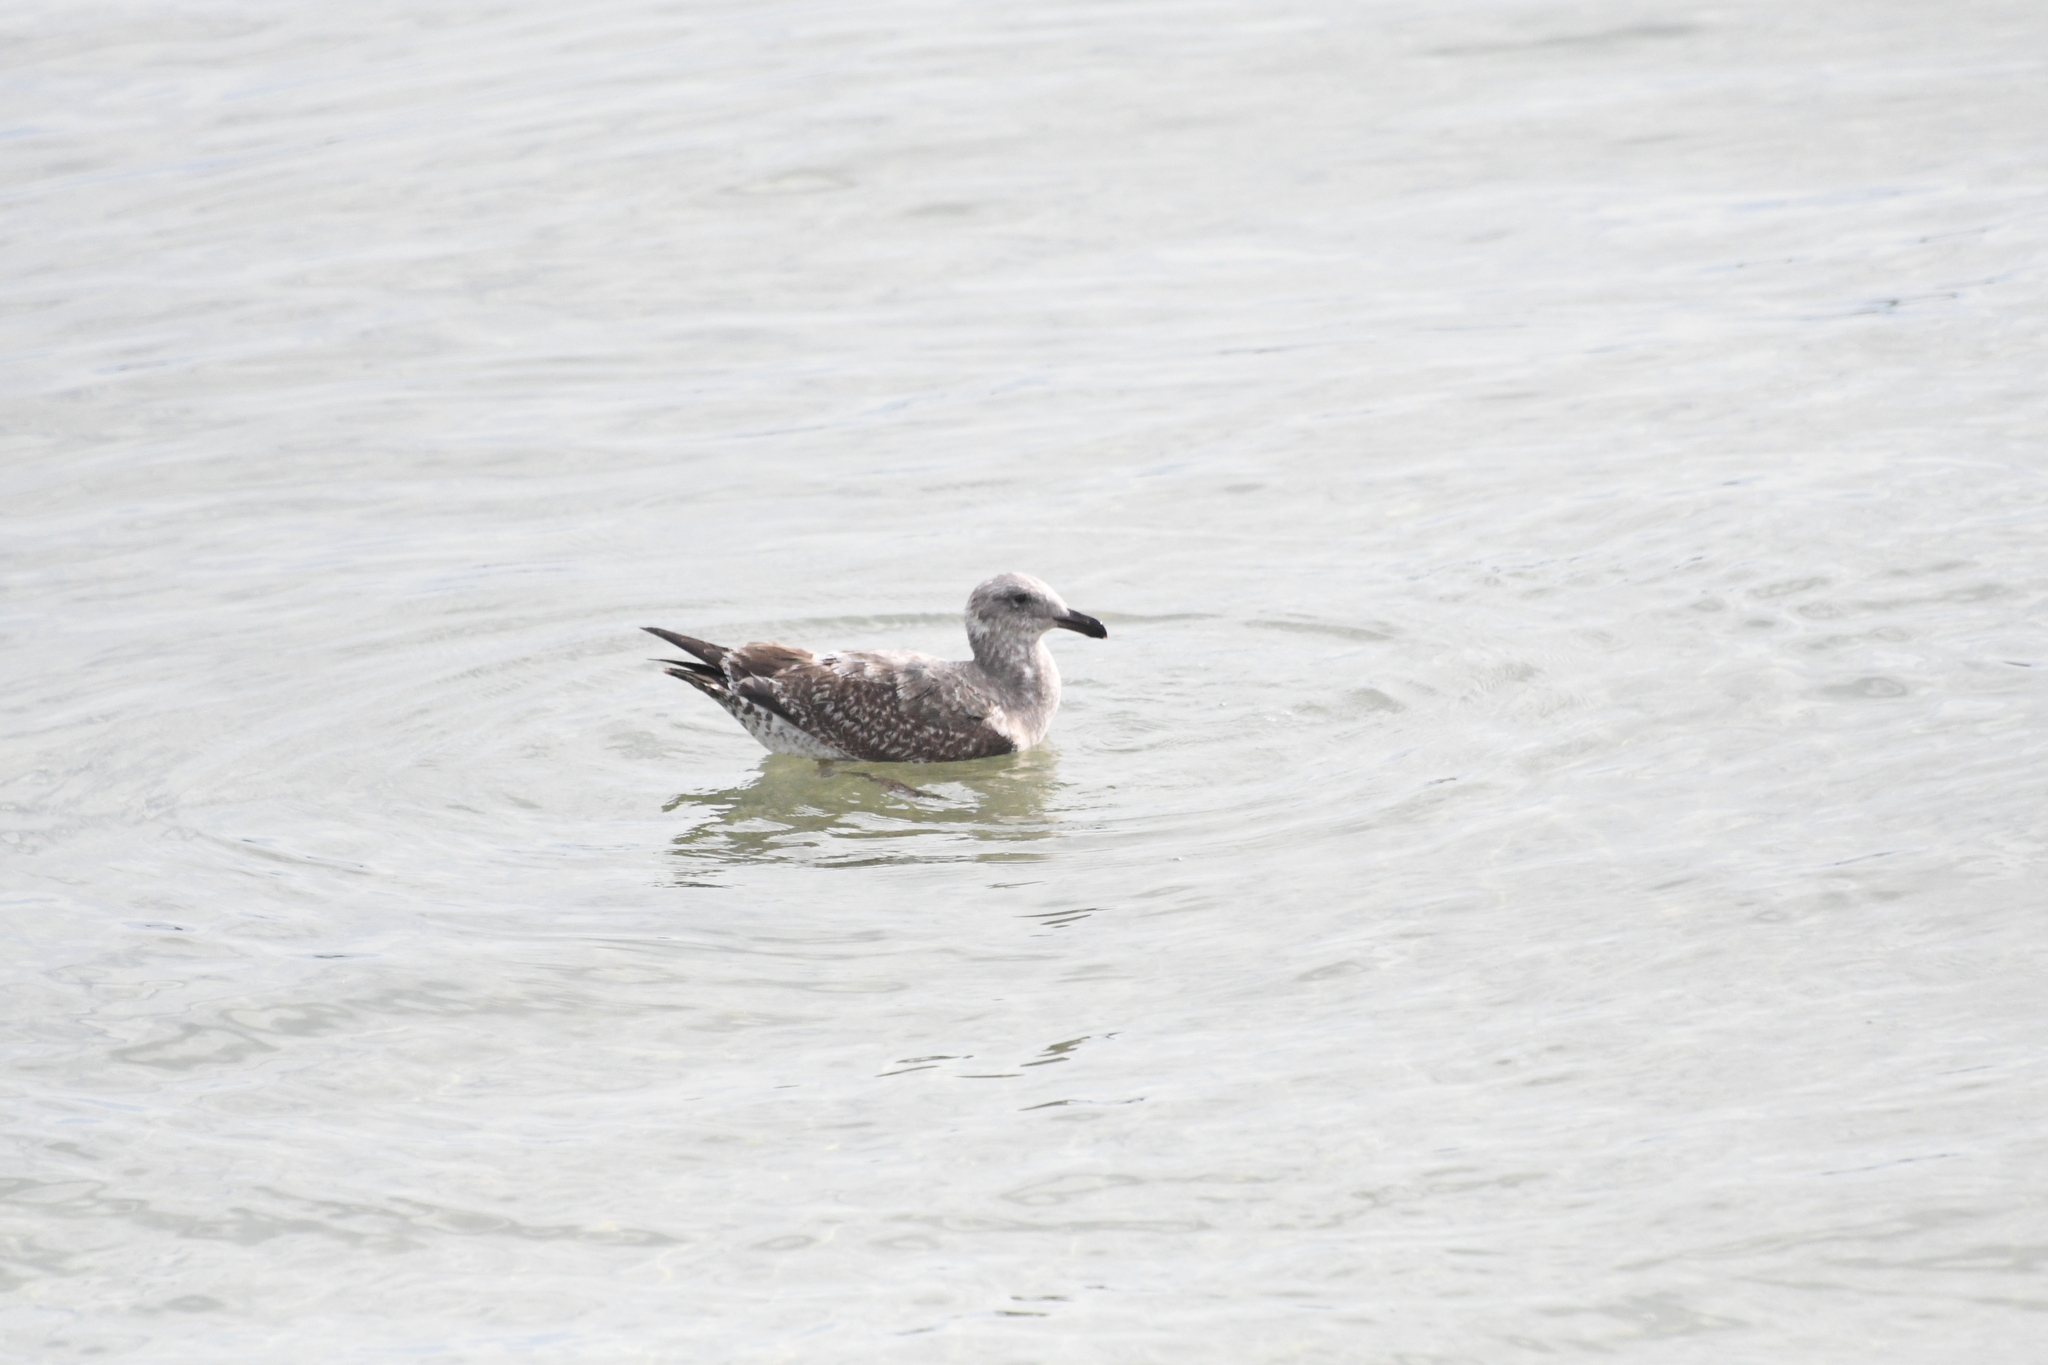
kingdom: Animalia
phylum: Chordata
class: Aves
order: Charadriiformes
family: Laridae
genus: Larus
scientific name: Larus occidentalis
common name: Western gull
